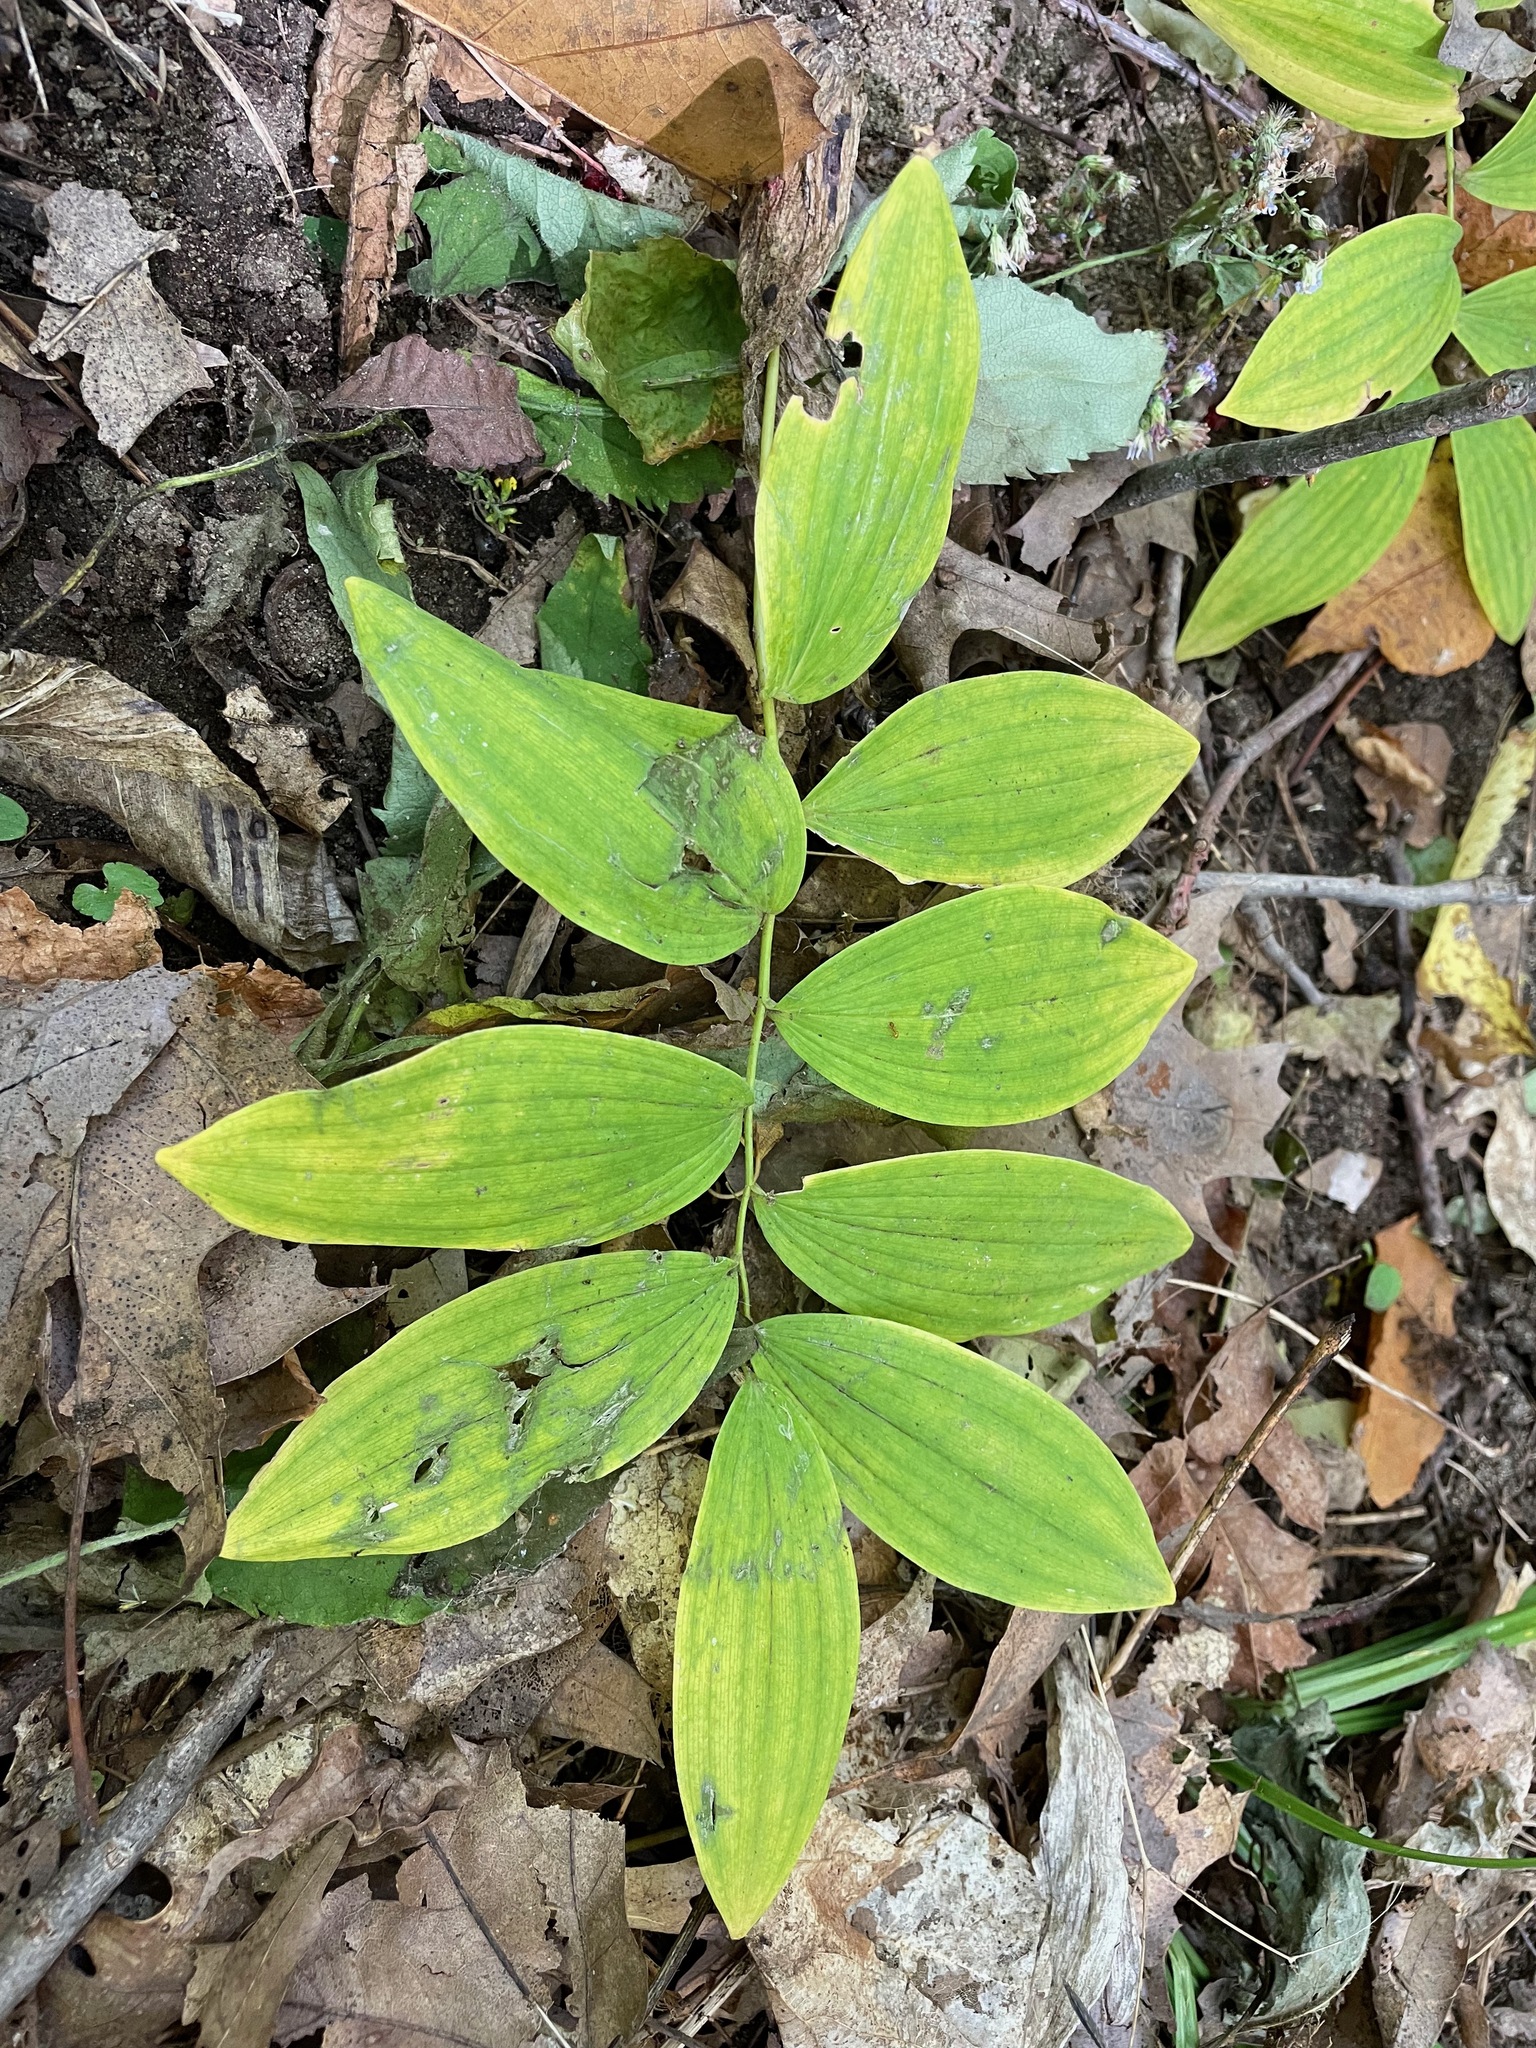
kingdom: Plantae
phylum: Tracheophyta
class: Liliopsida
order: Asparagales
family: Asparagaceae
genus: Polygonatum
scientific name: Polygonatum pubescens
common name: Downy solomon's seal
